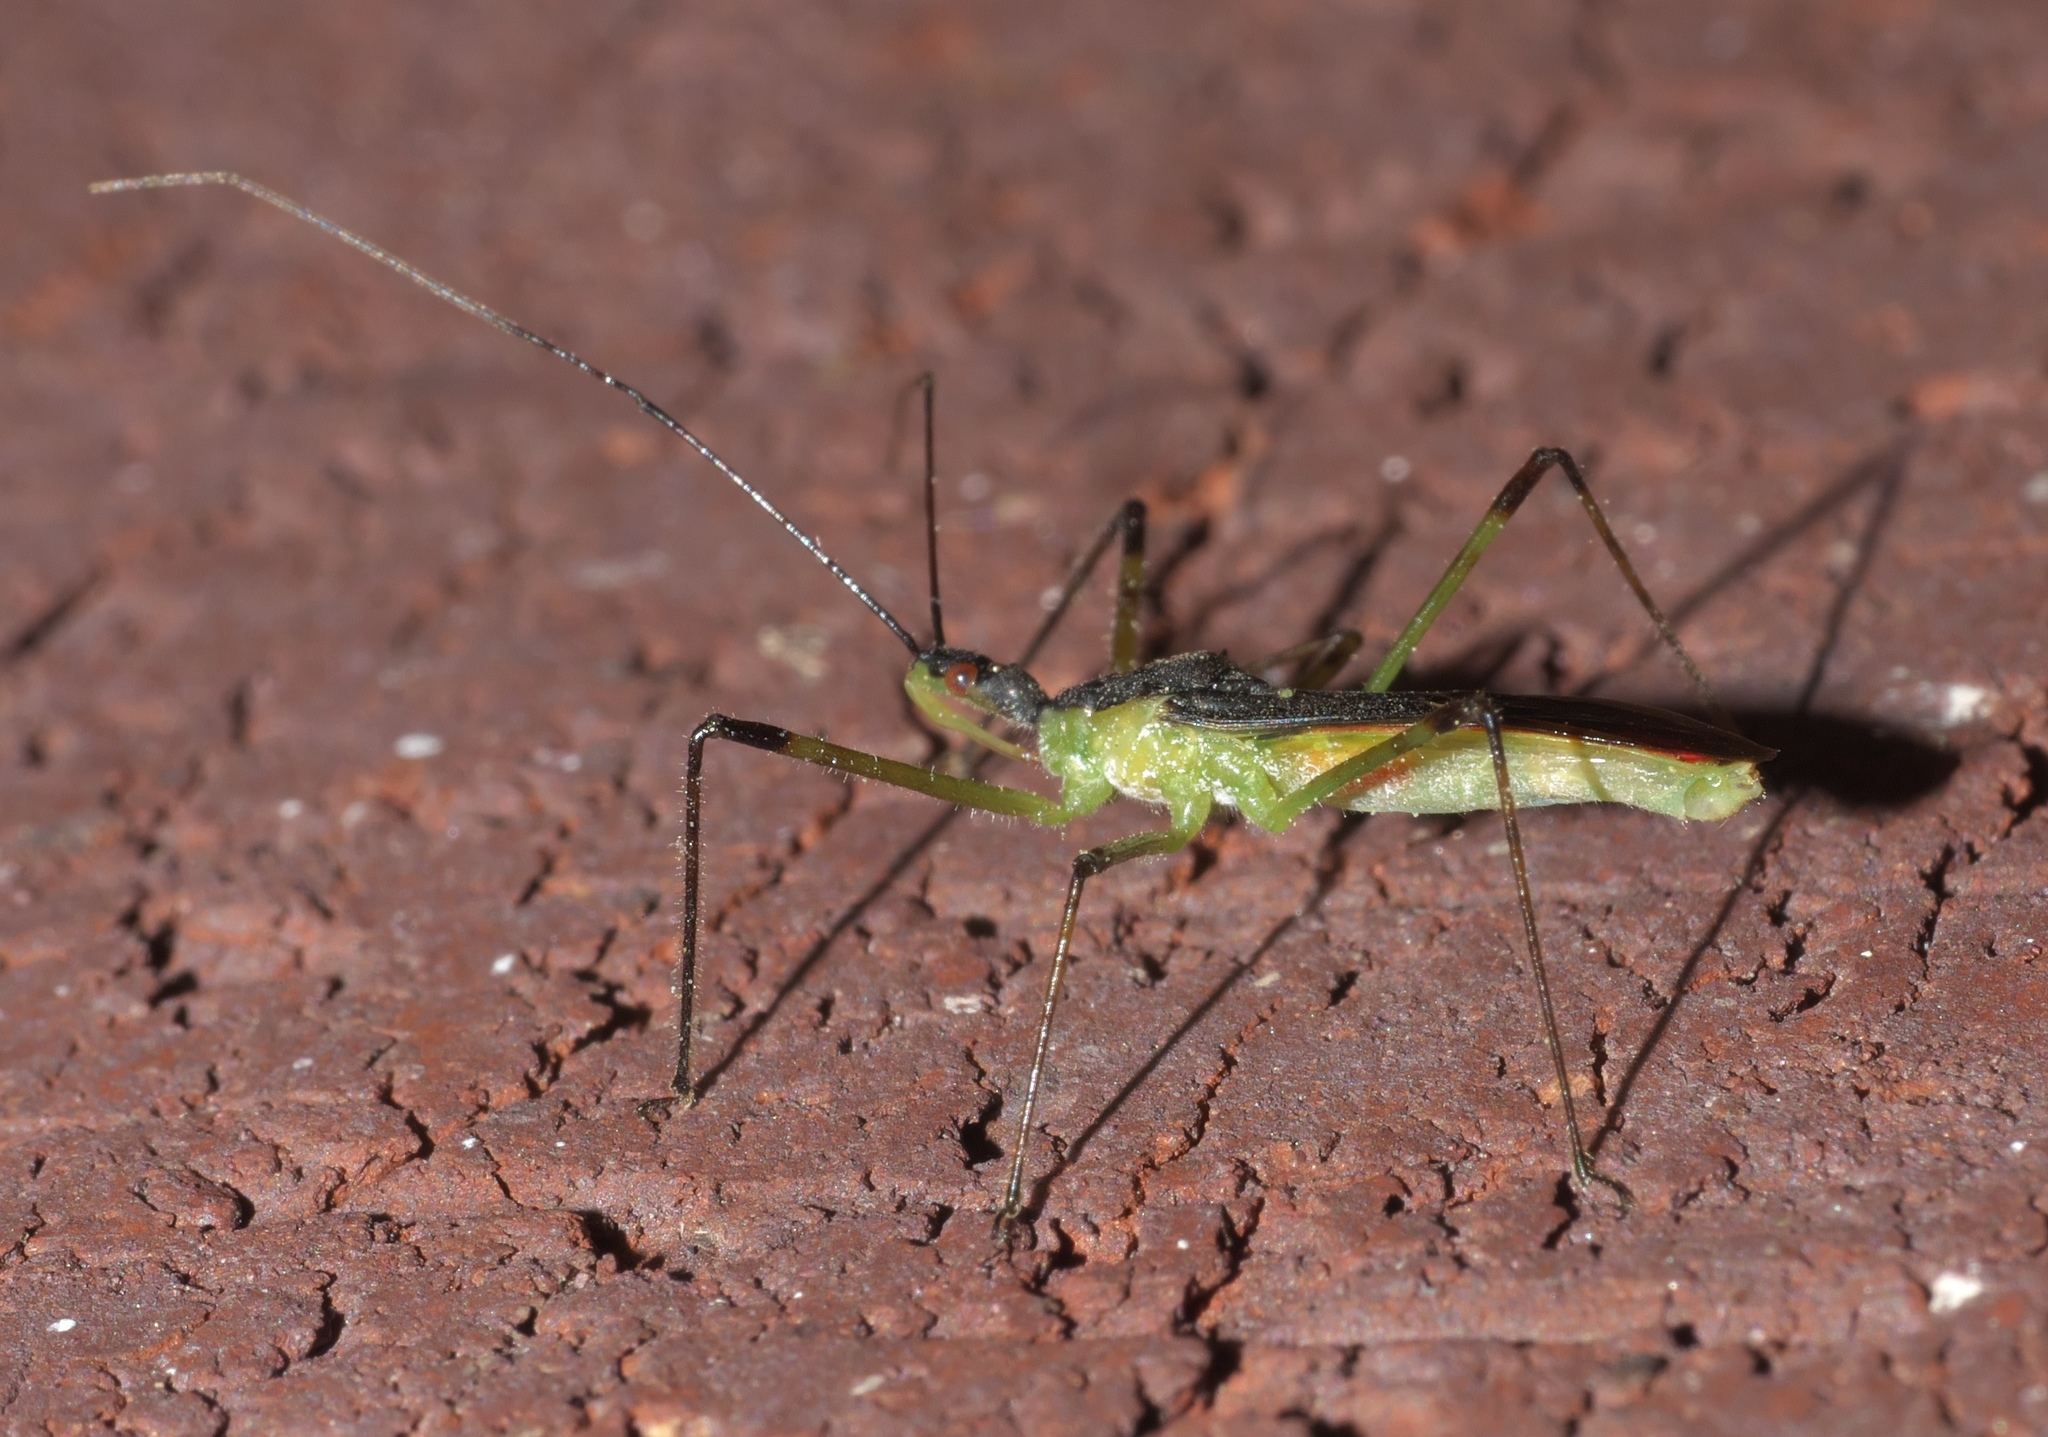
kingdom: Animalia
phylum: Arthropoda
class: Insecta
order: Hemiptera
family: Reduviidae
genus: Zelus
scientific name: Zelus luridus
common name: Pale green assassin bug
